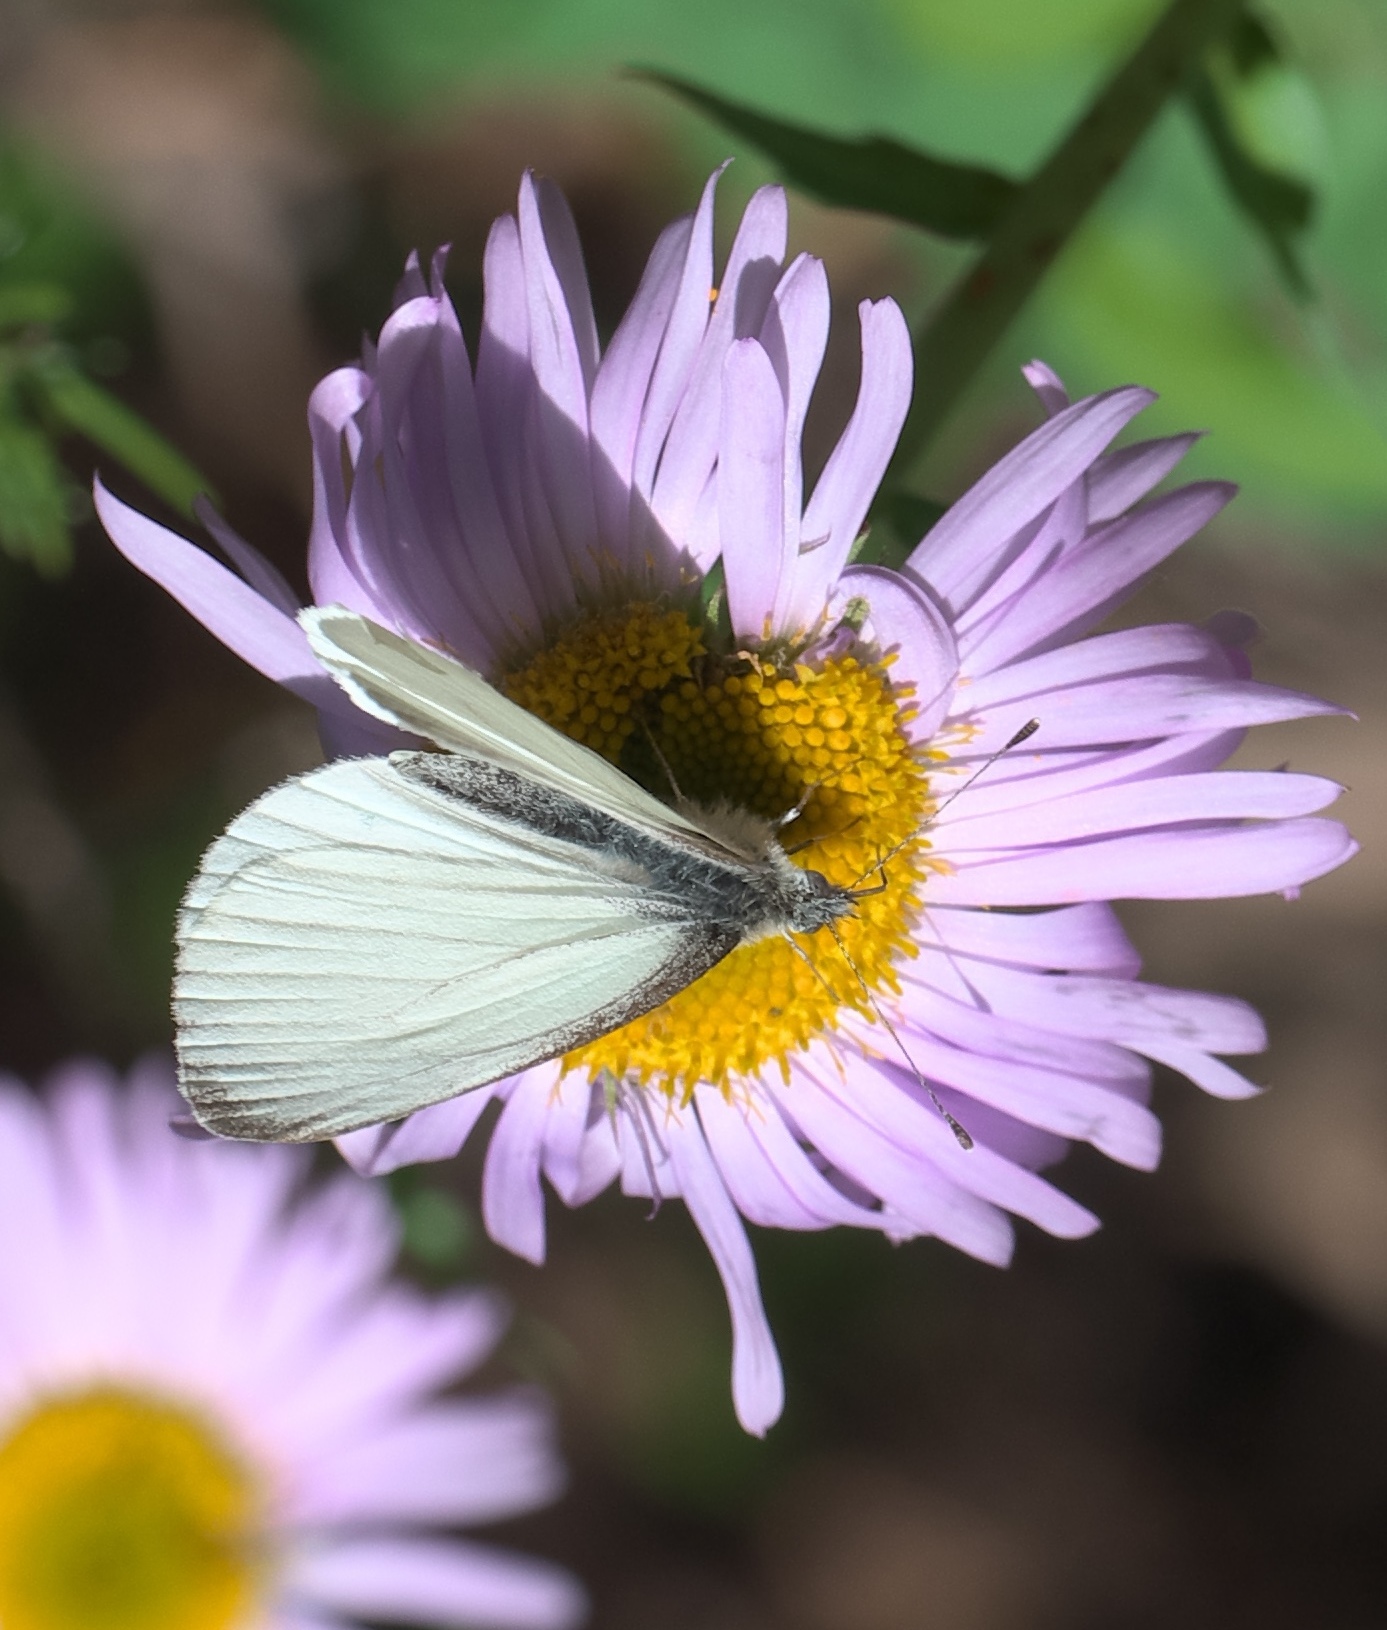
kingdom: Animalia
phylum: Arthropoda
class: Insecta
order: Lepidoptera
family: Pieridae
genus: Pieris
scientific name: Pieris marginalis
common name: Margined white
